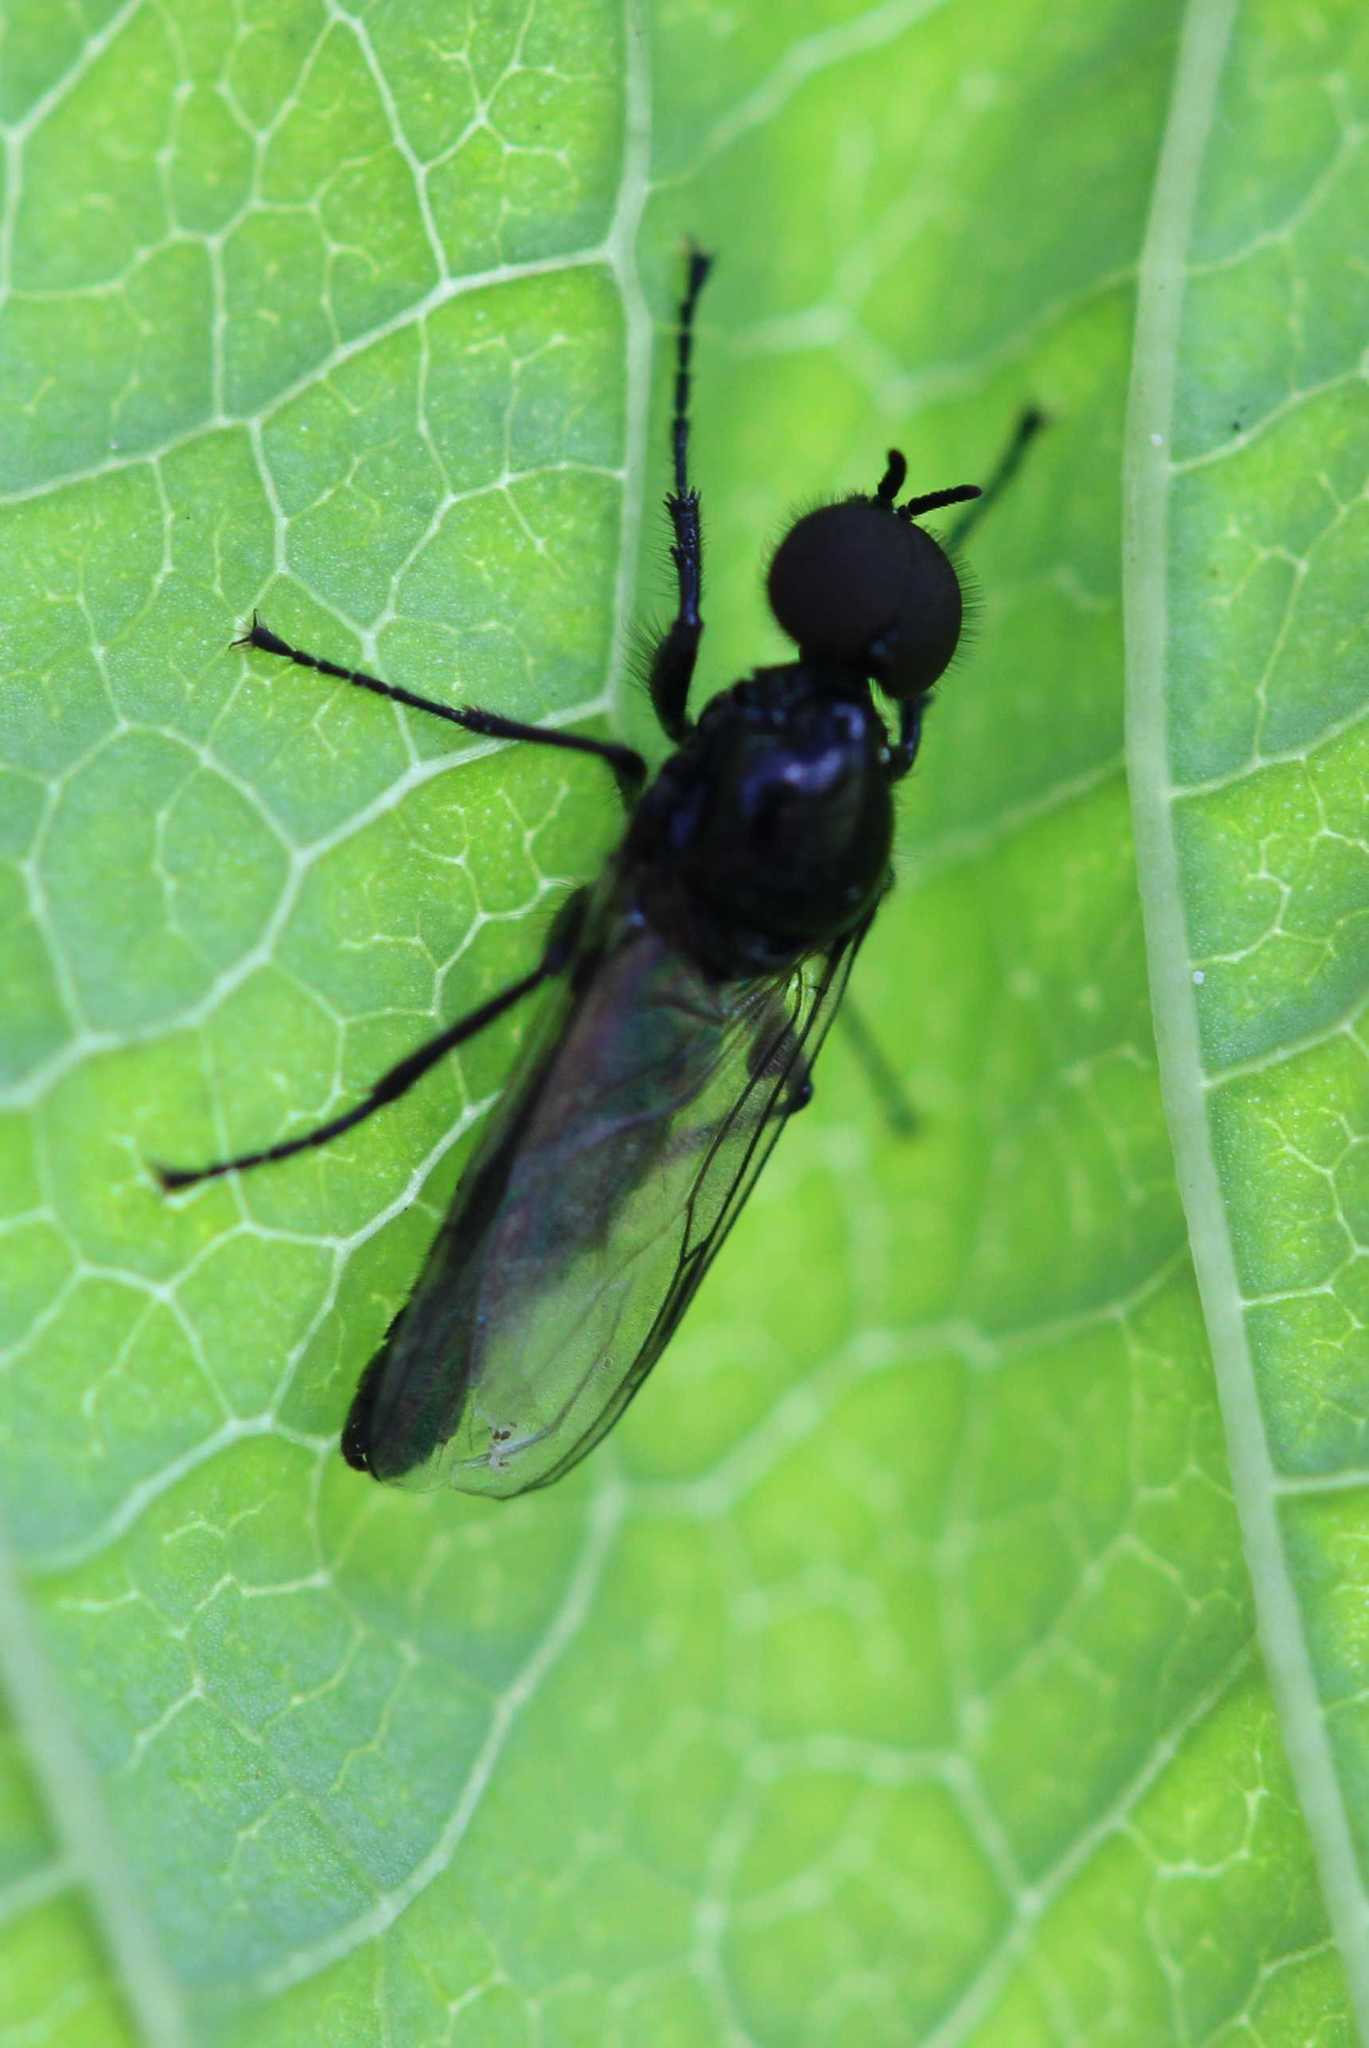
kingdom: Animalia
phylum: Arthropoda
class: Insecta
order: Diptera
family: Bibionidae
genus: Dilophus
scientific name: Dilophus
